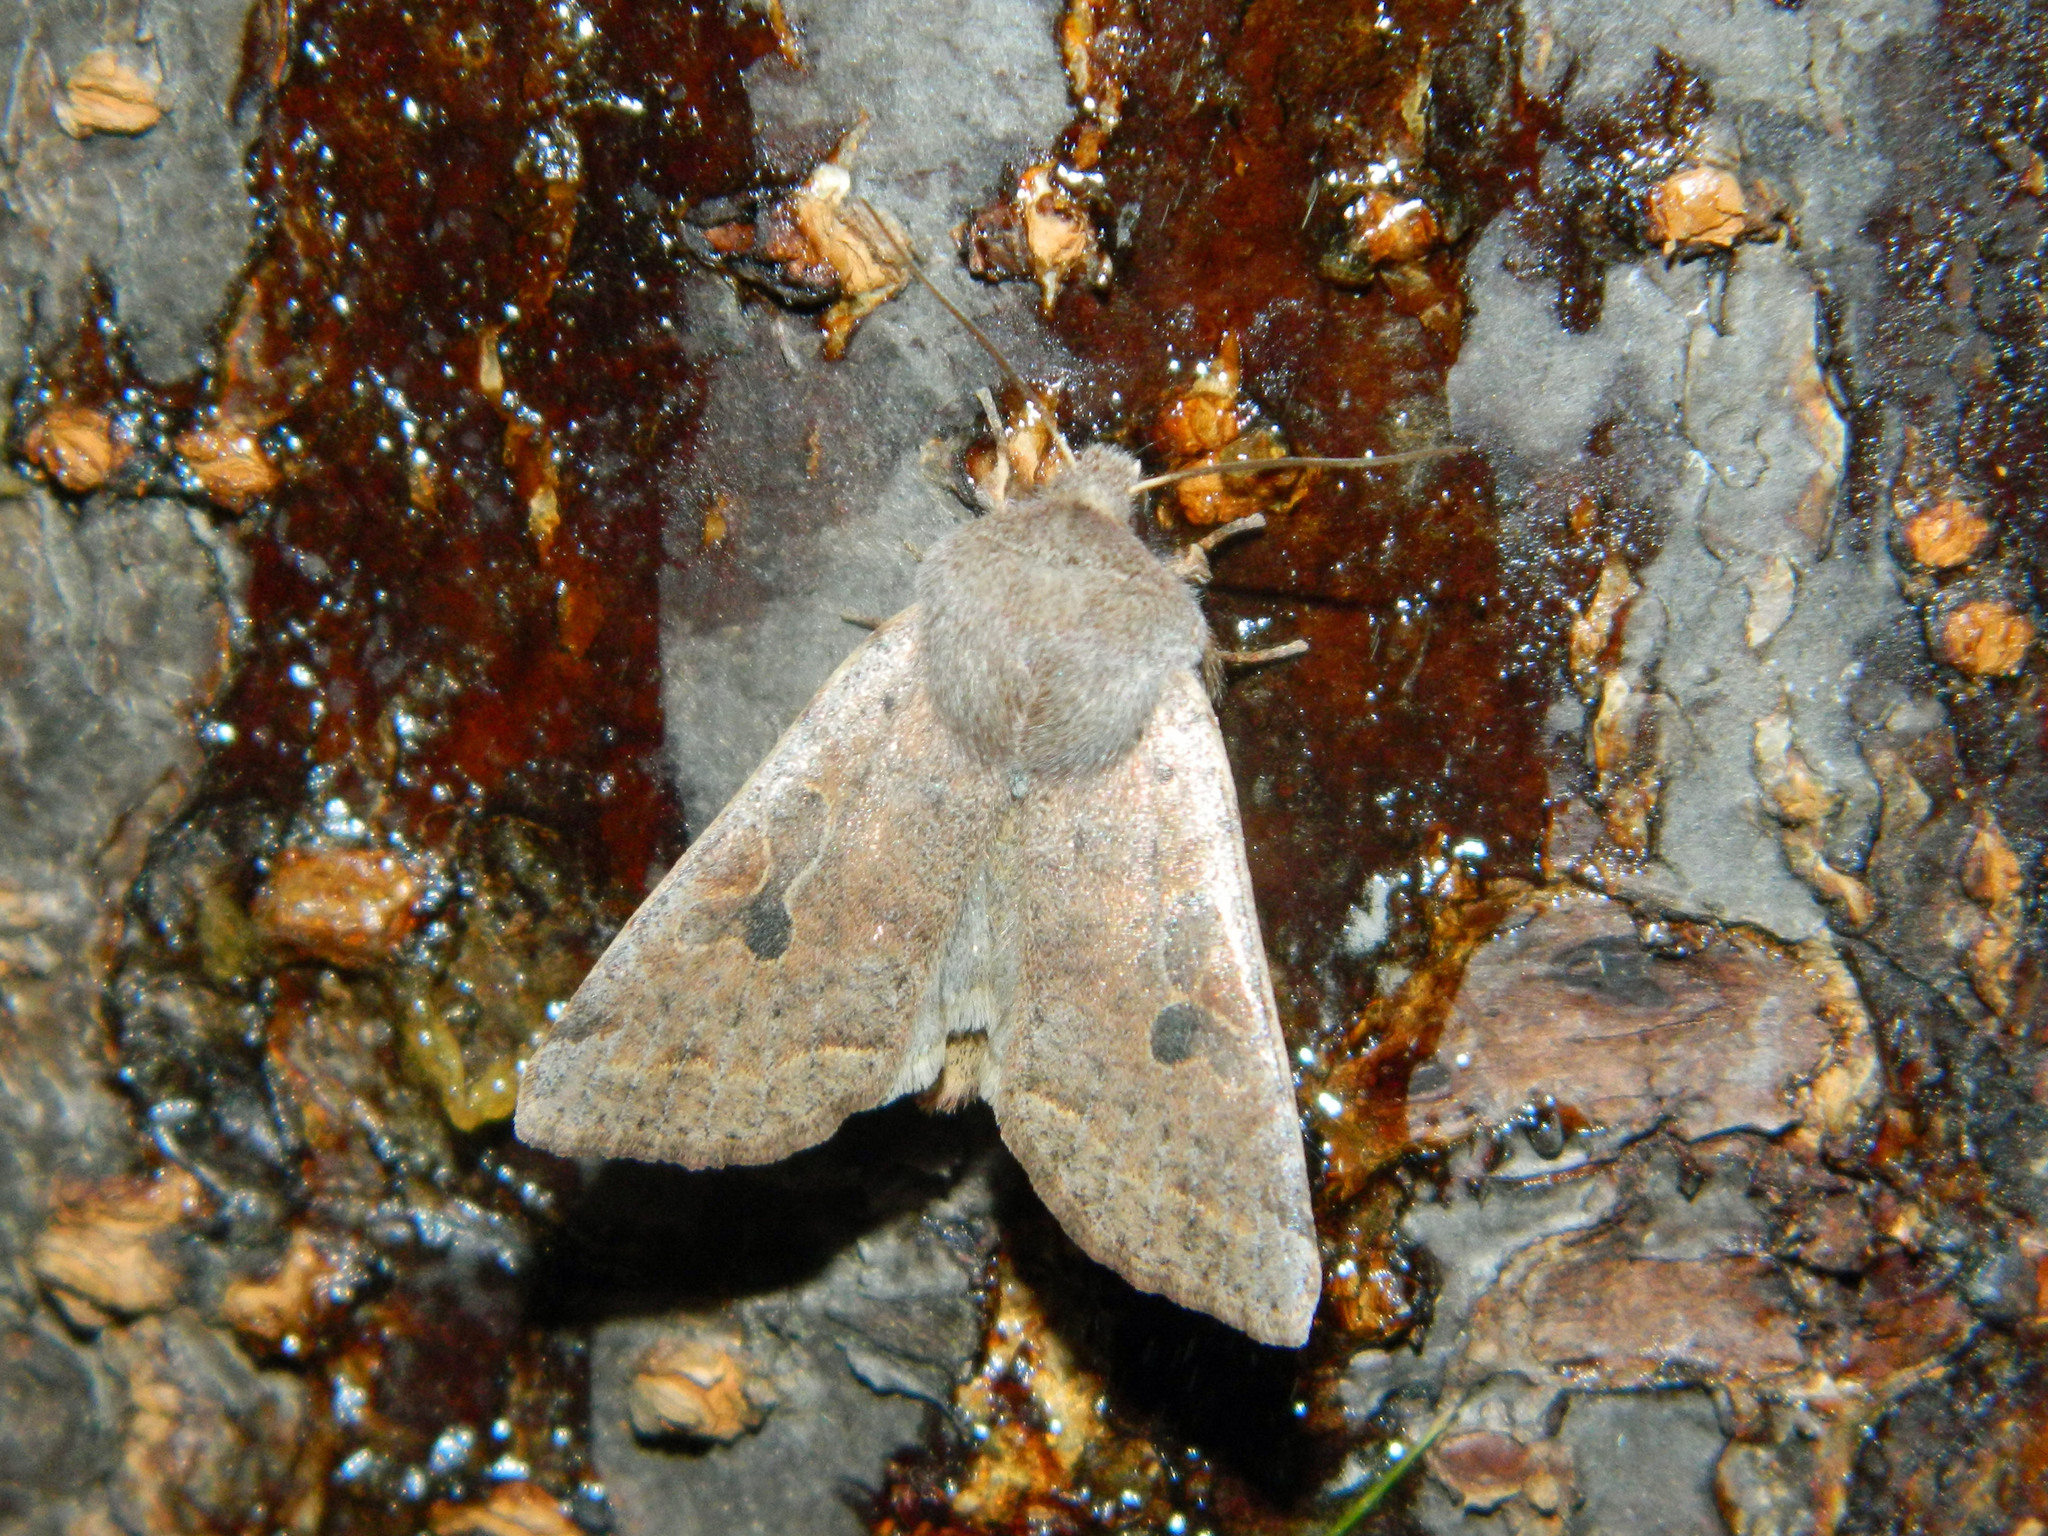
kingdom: Animalia
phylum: Arthropoda
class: Insecta
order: Lepidoptera
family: Noctuidae
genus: Orthosia
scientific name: Orthosia hibisci
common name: Green fruitworm
